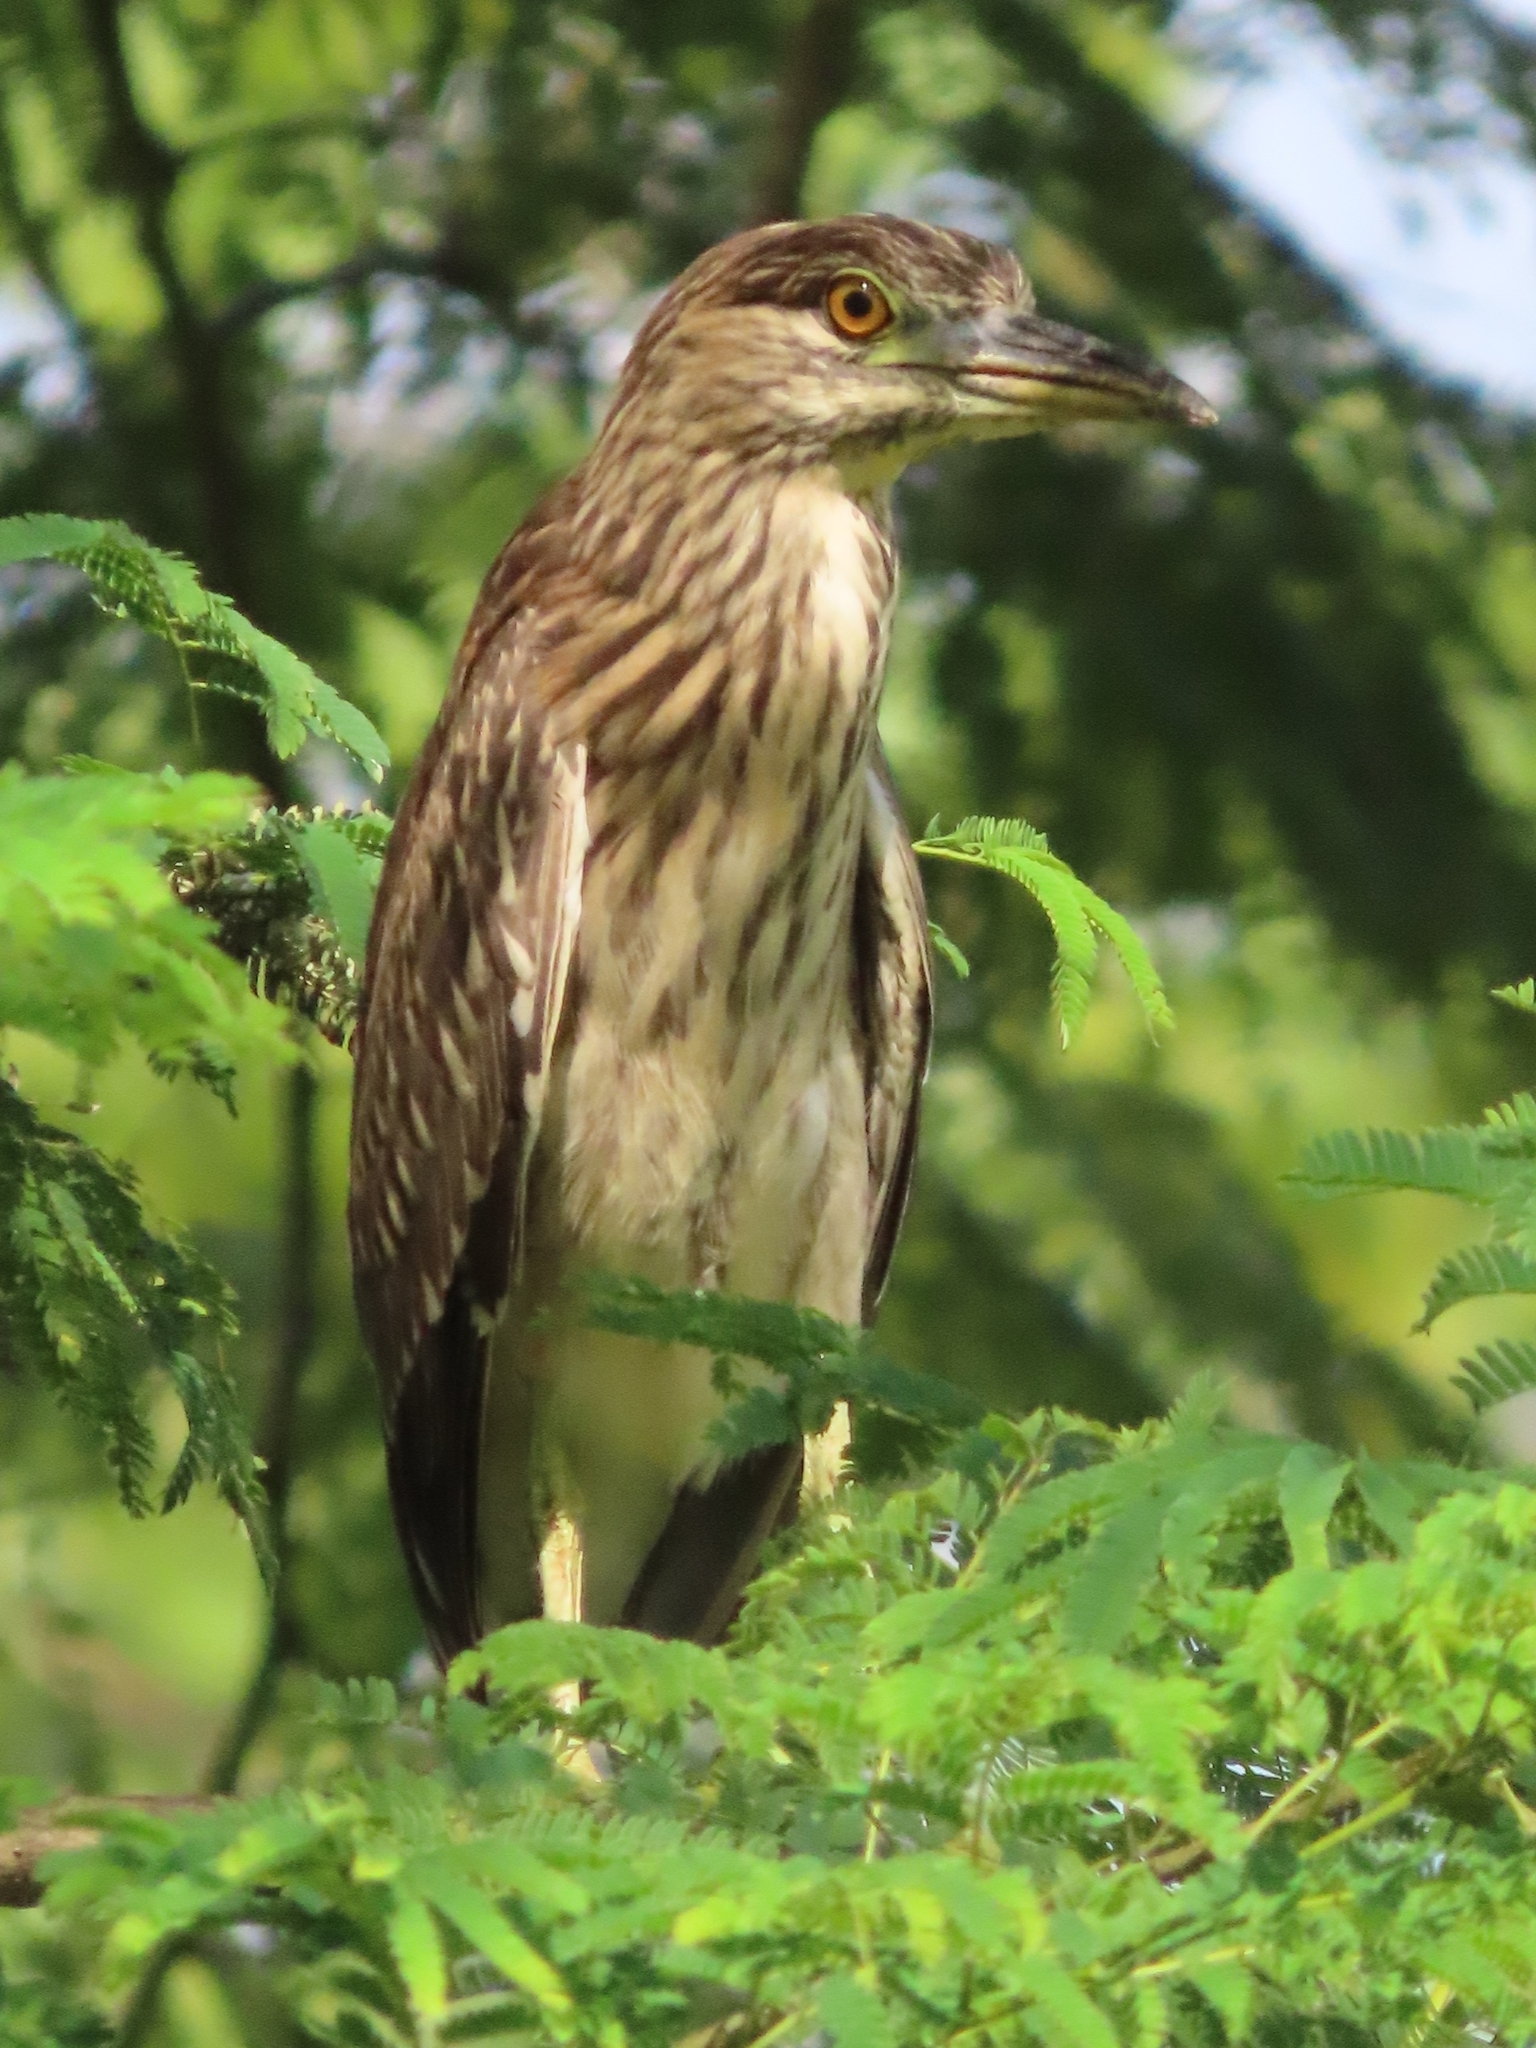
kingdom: Animalia
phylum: Chordata
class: Aves
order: Pelecaniformes
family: Ardeidae
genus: Nycticorax
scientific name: Nycticorax nycticorax
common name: Black-crowned night heron
